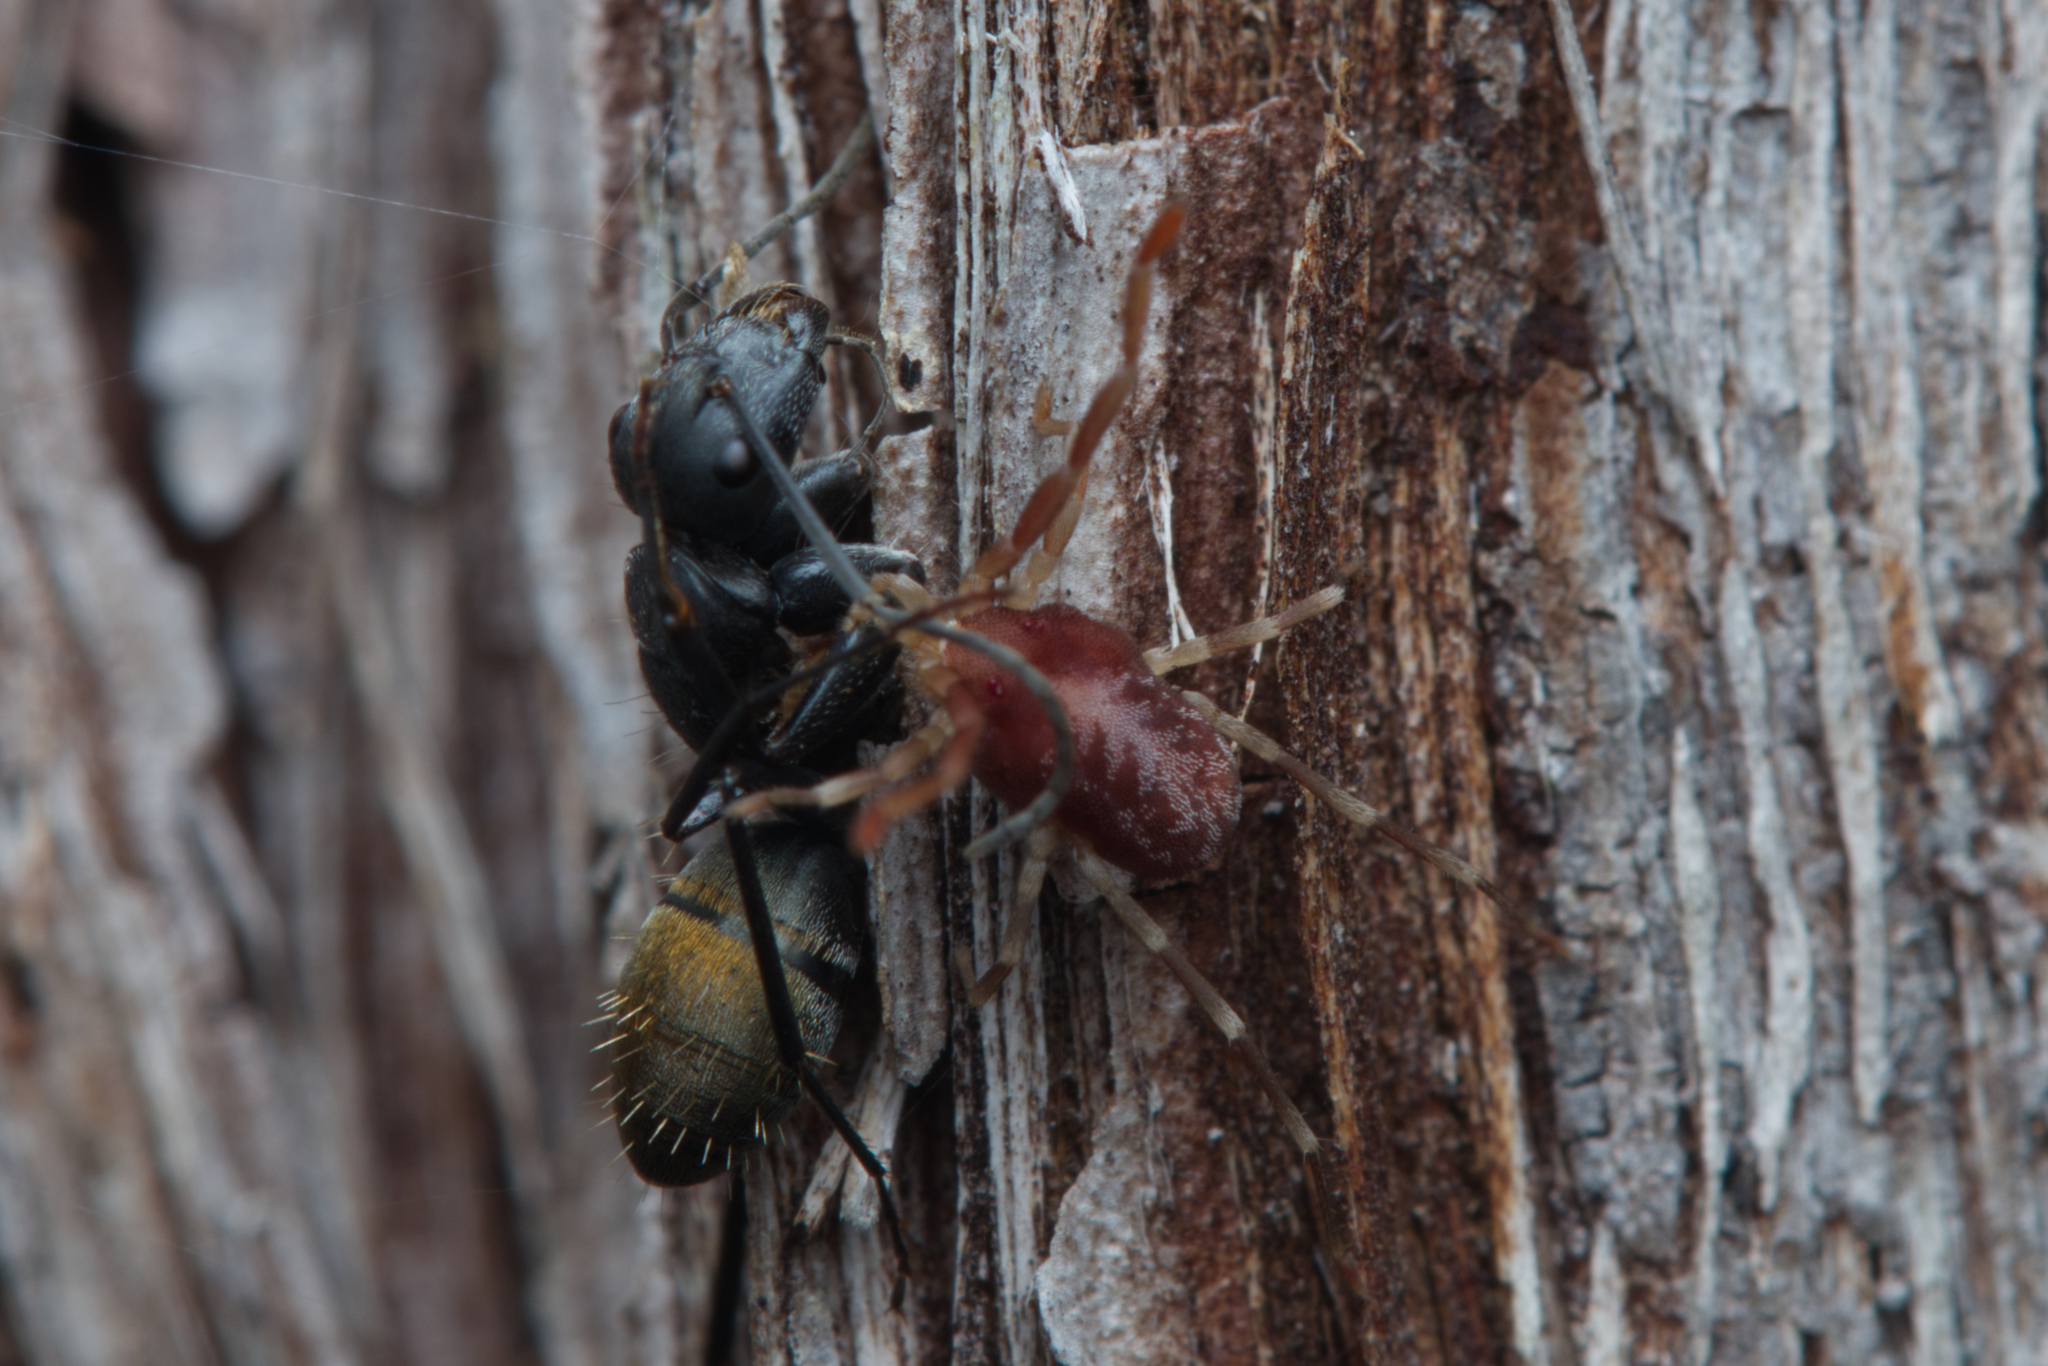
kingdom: Animalia
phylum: Arthropoda
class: Insecta
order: Hymenoptera
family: Formicidae
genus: Camponotus
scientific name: Camponotus aeneopilosus
